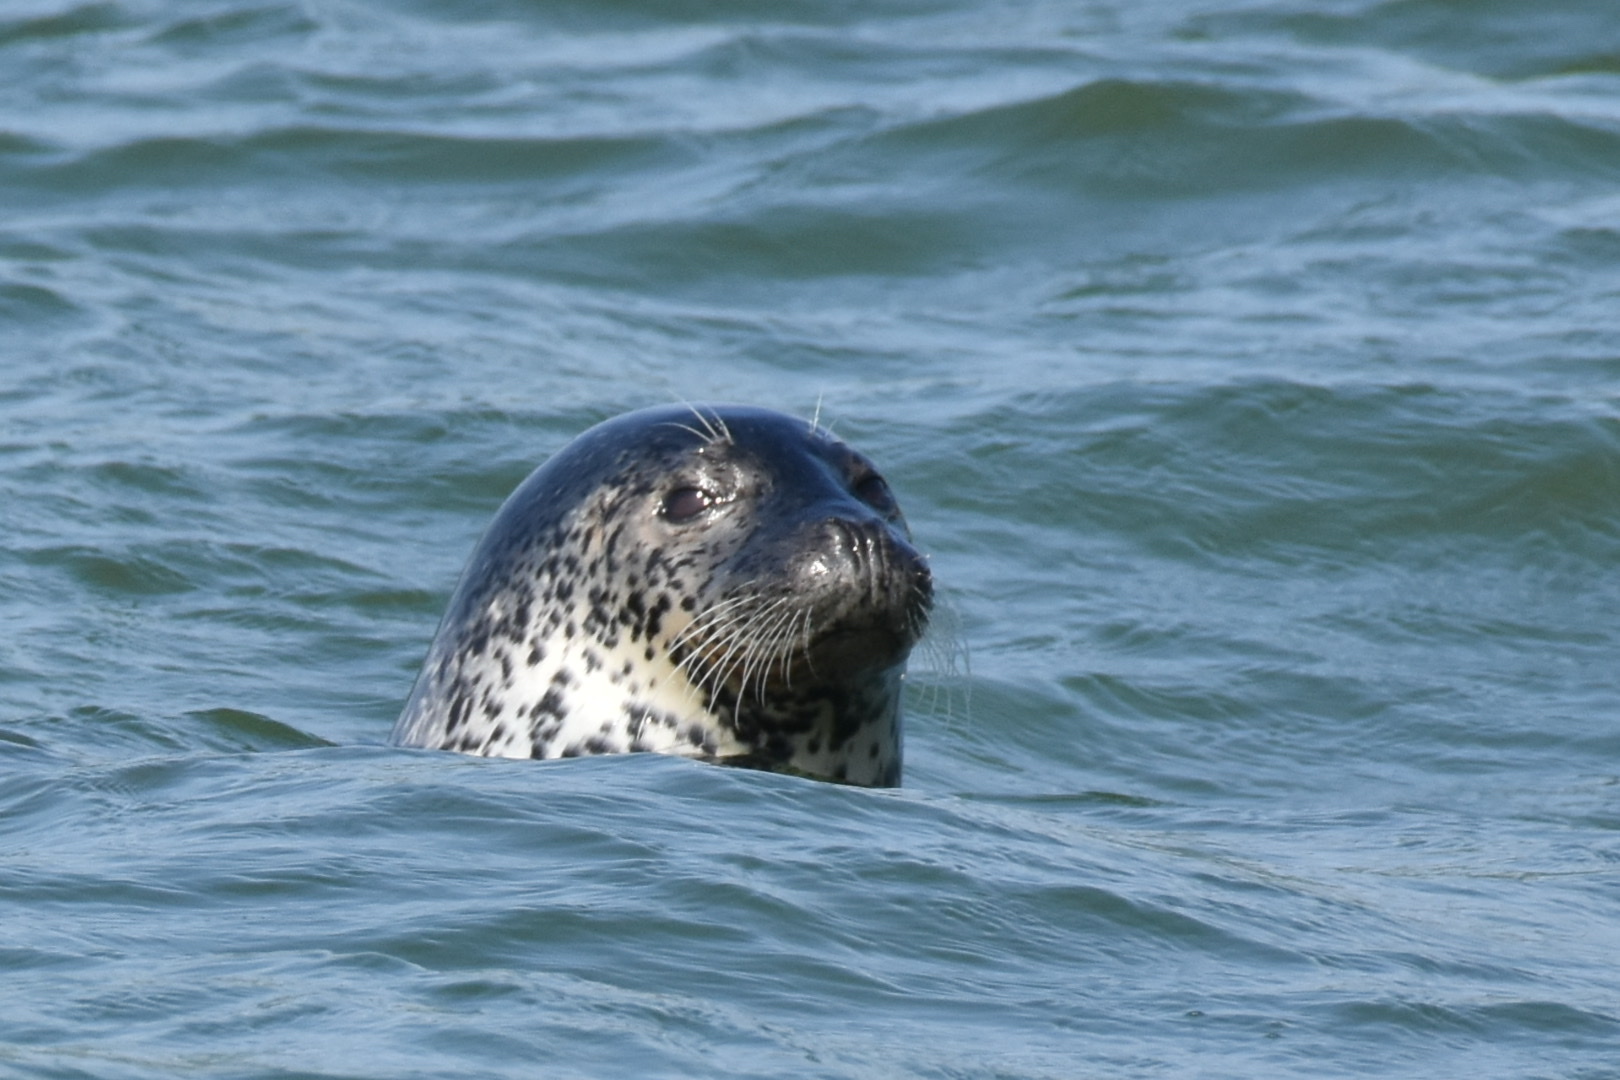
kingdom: Animalia
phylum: Chordata
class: Mammalia
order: Carnivora
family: Phocidae
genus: Phoca
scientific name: Phoca largha
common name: Spotted seal
